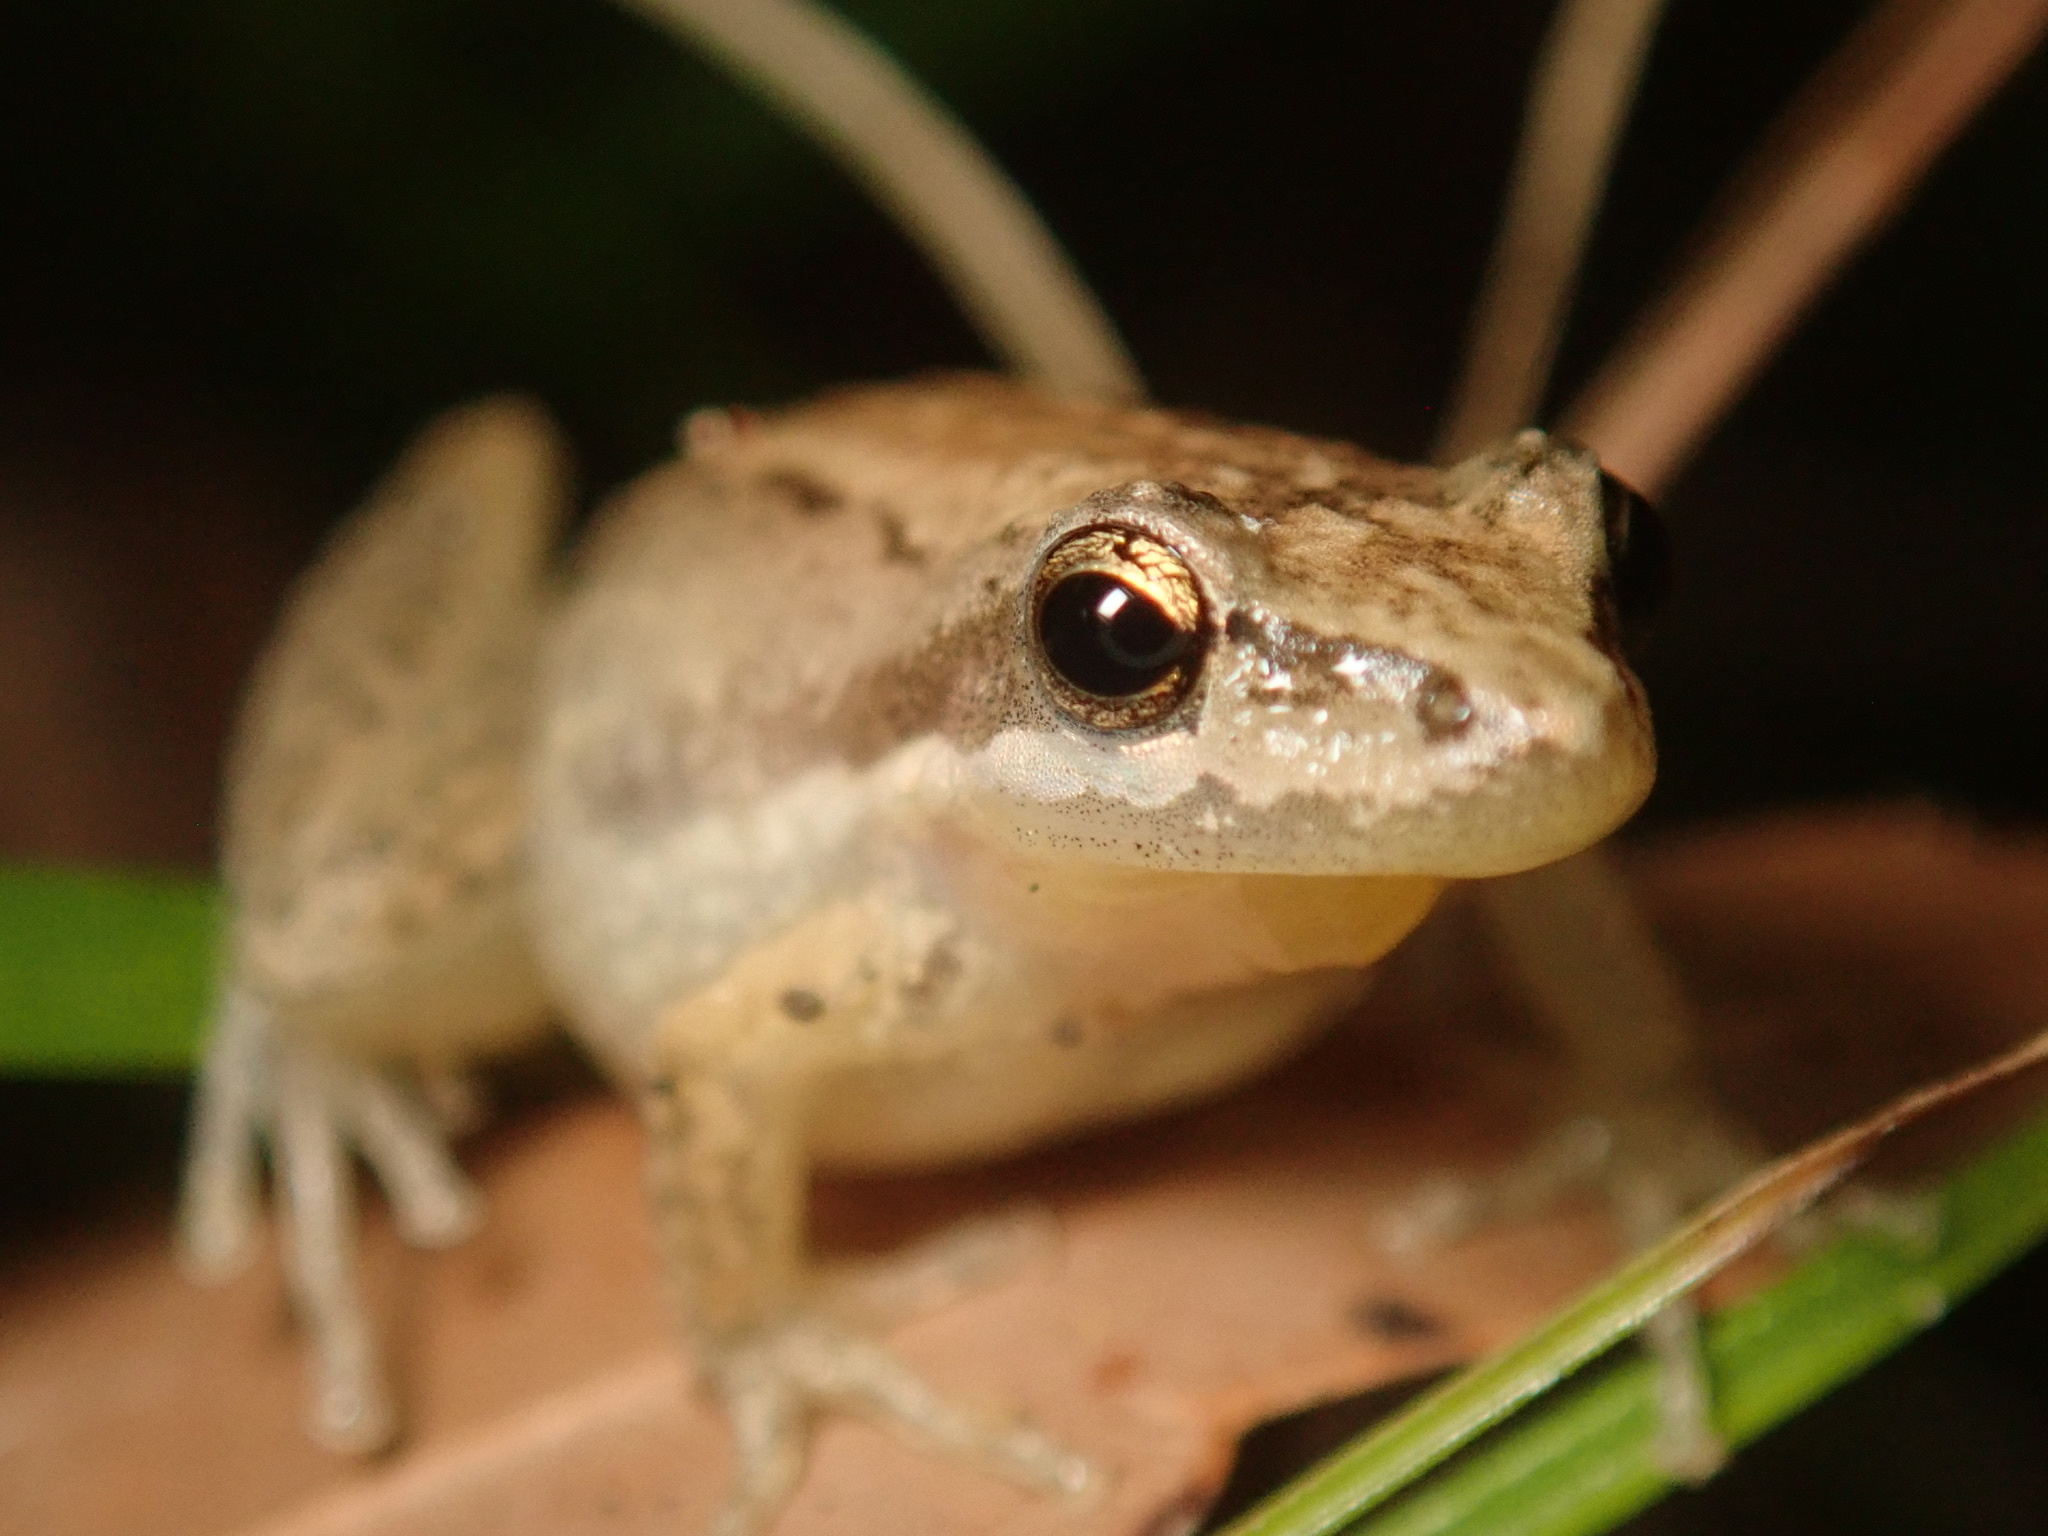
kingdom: Animalia
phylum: Chordata
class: Amphibia
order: Anura
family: Pelodryadidae
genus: Litoria
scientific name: Litoria microbelos
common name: Javelin frog
